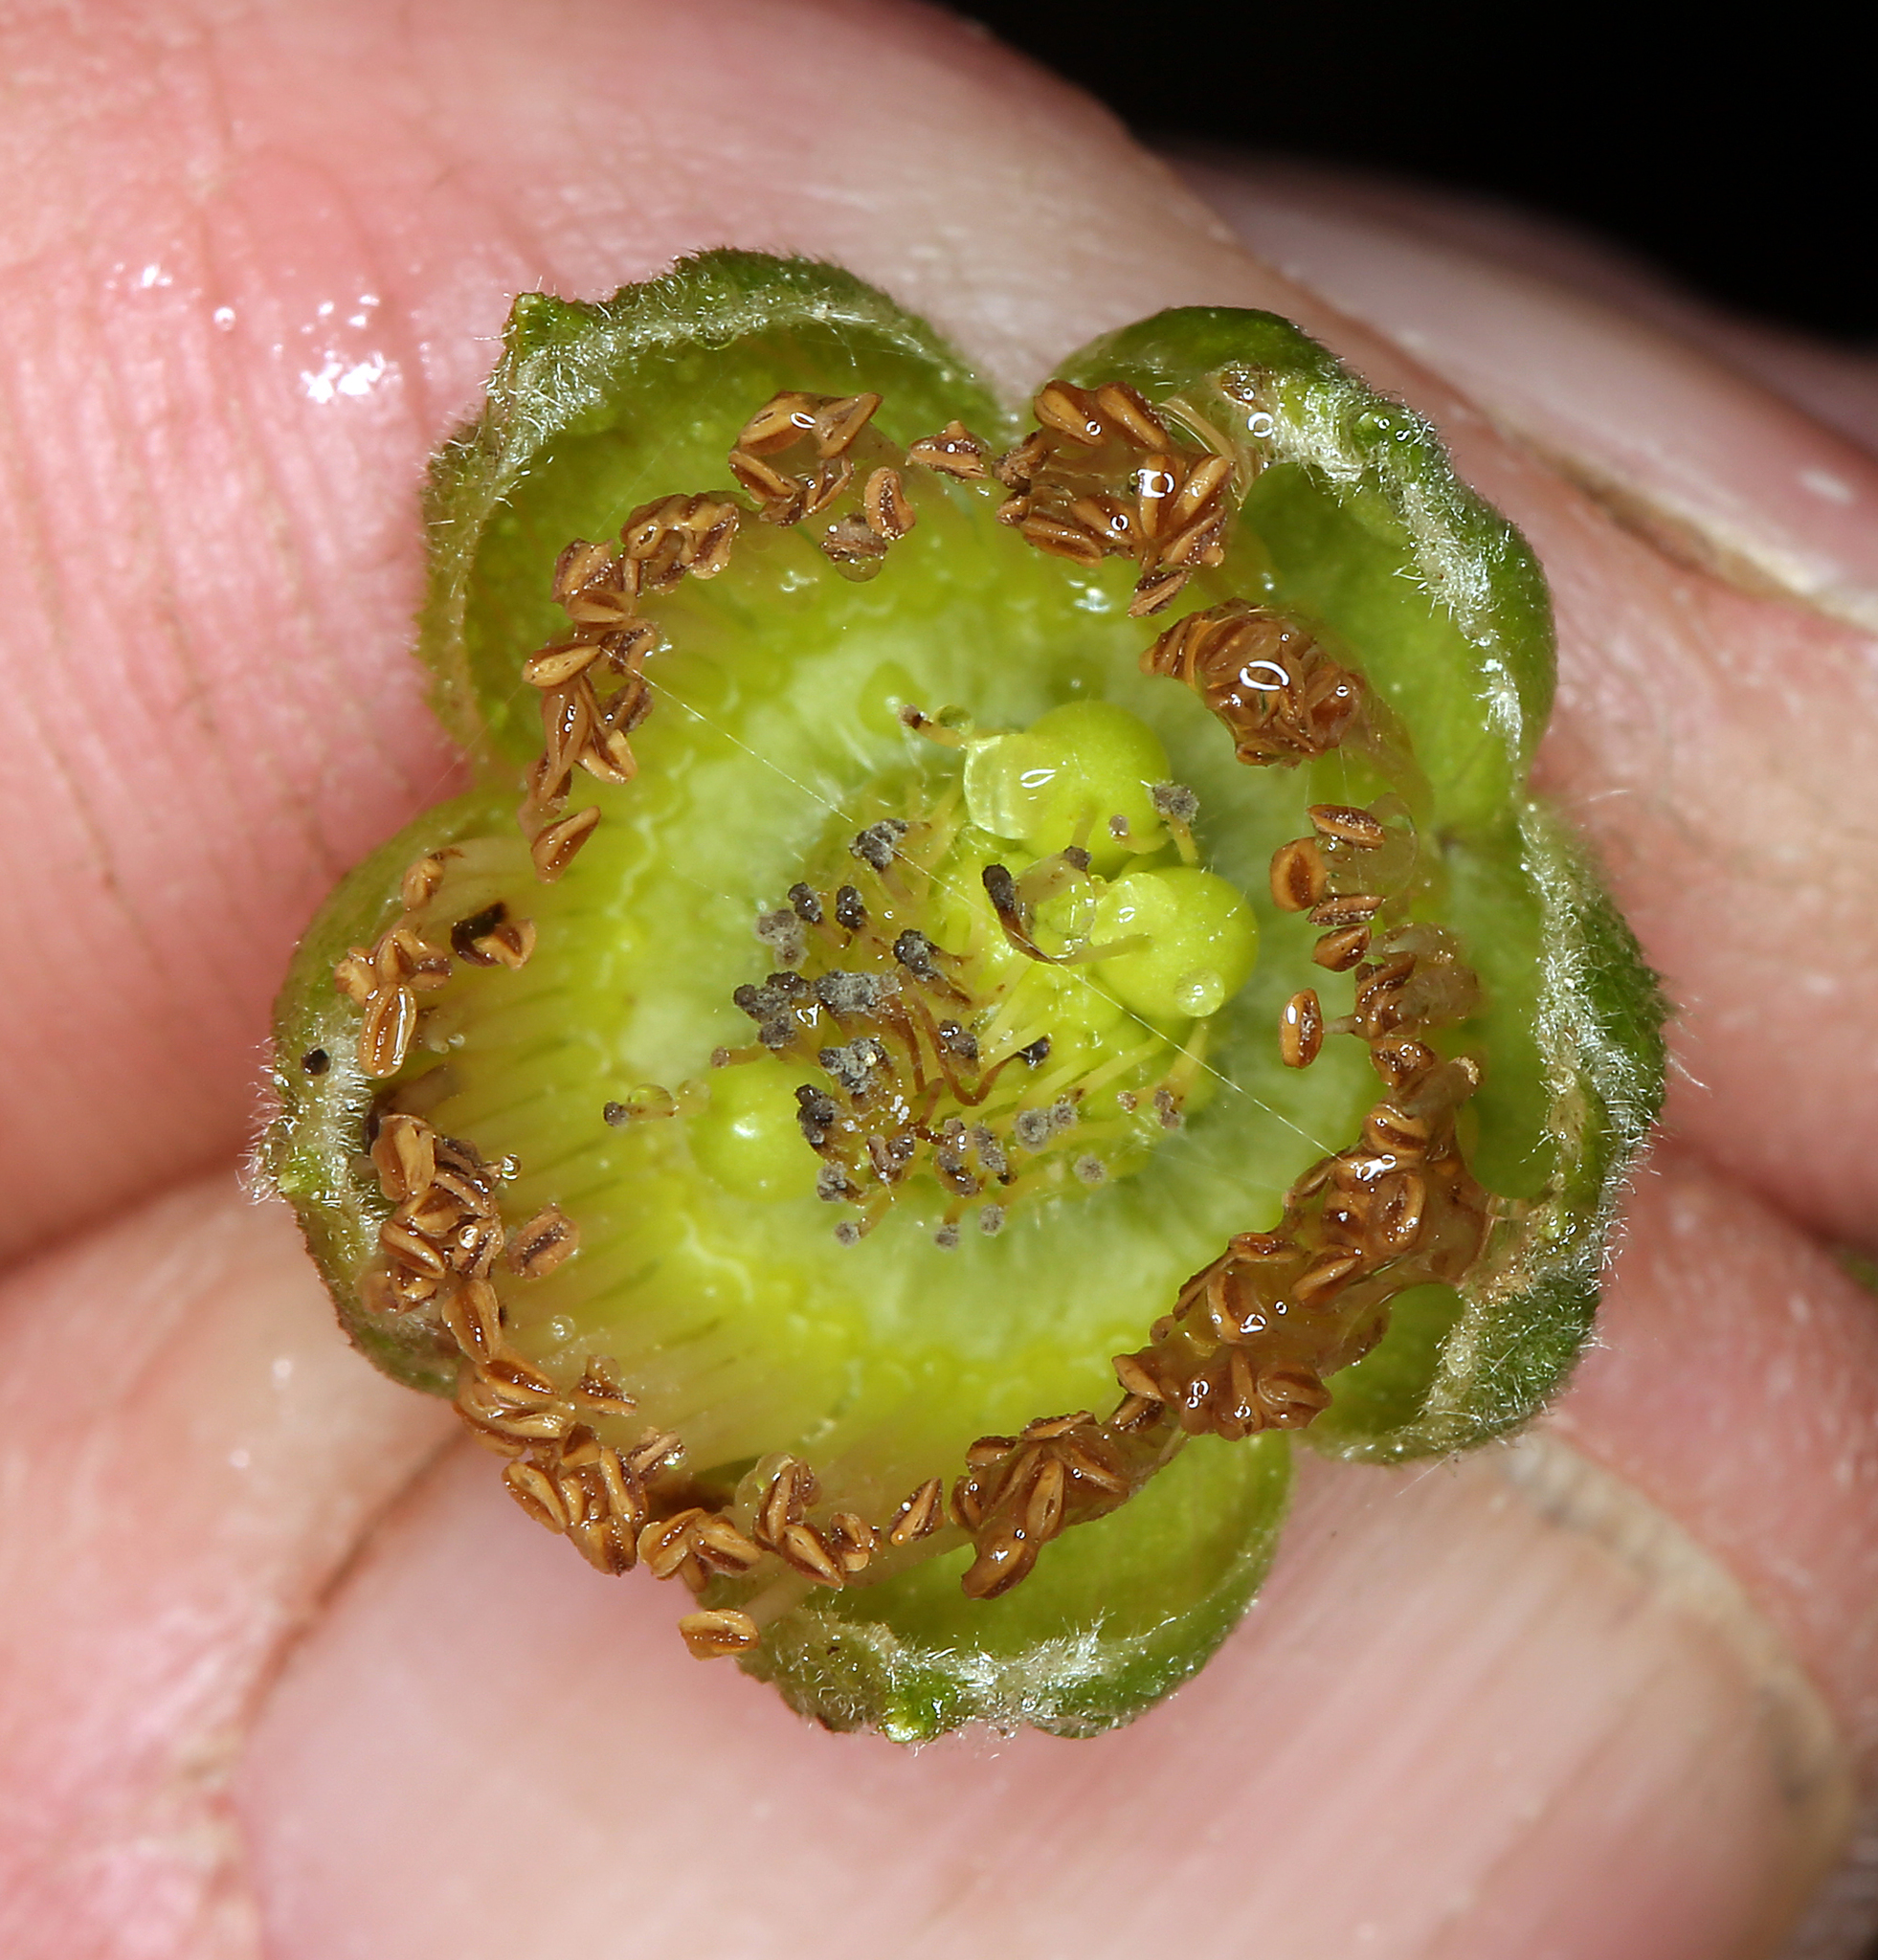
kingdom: Plantae
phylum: Tracheophyta
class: Magnoliopsida
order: Rosales
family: Rosaceae
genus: Rubus
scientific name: Rubus spectabilis
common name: Salmonberry
